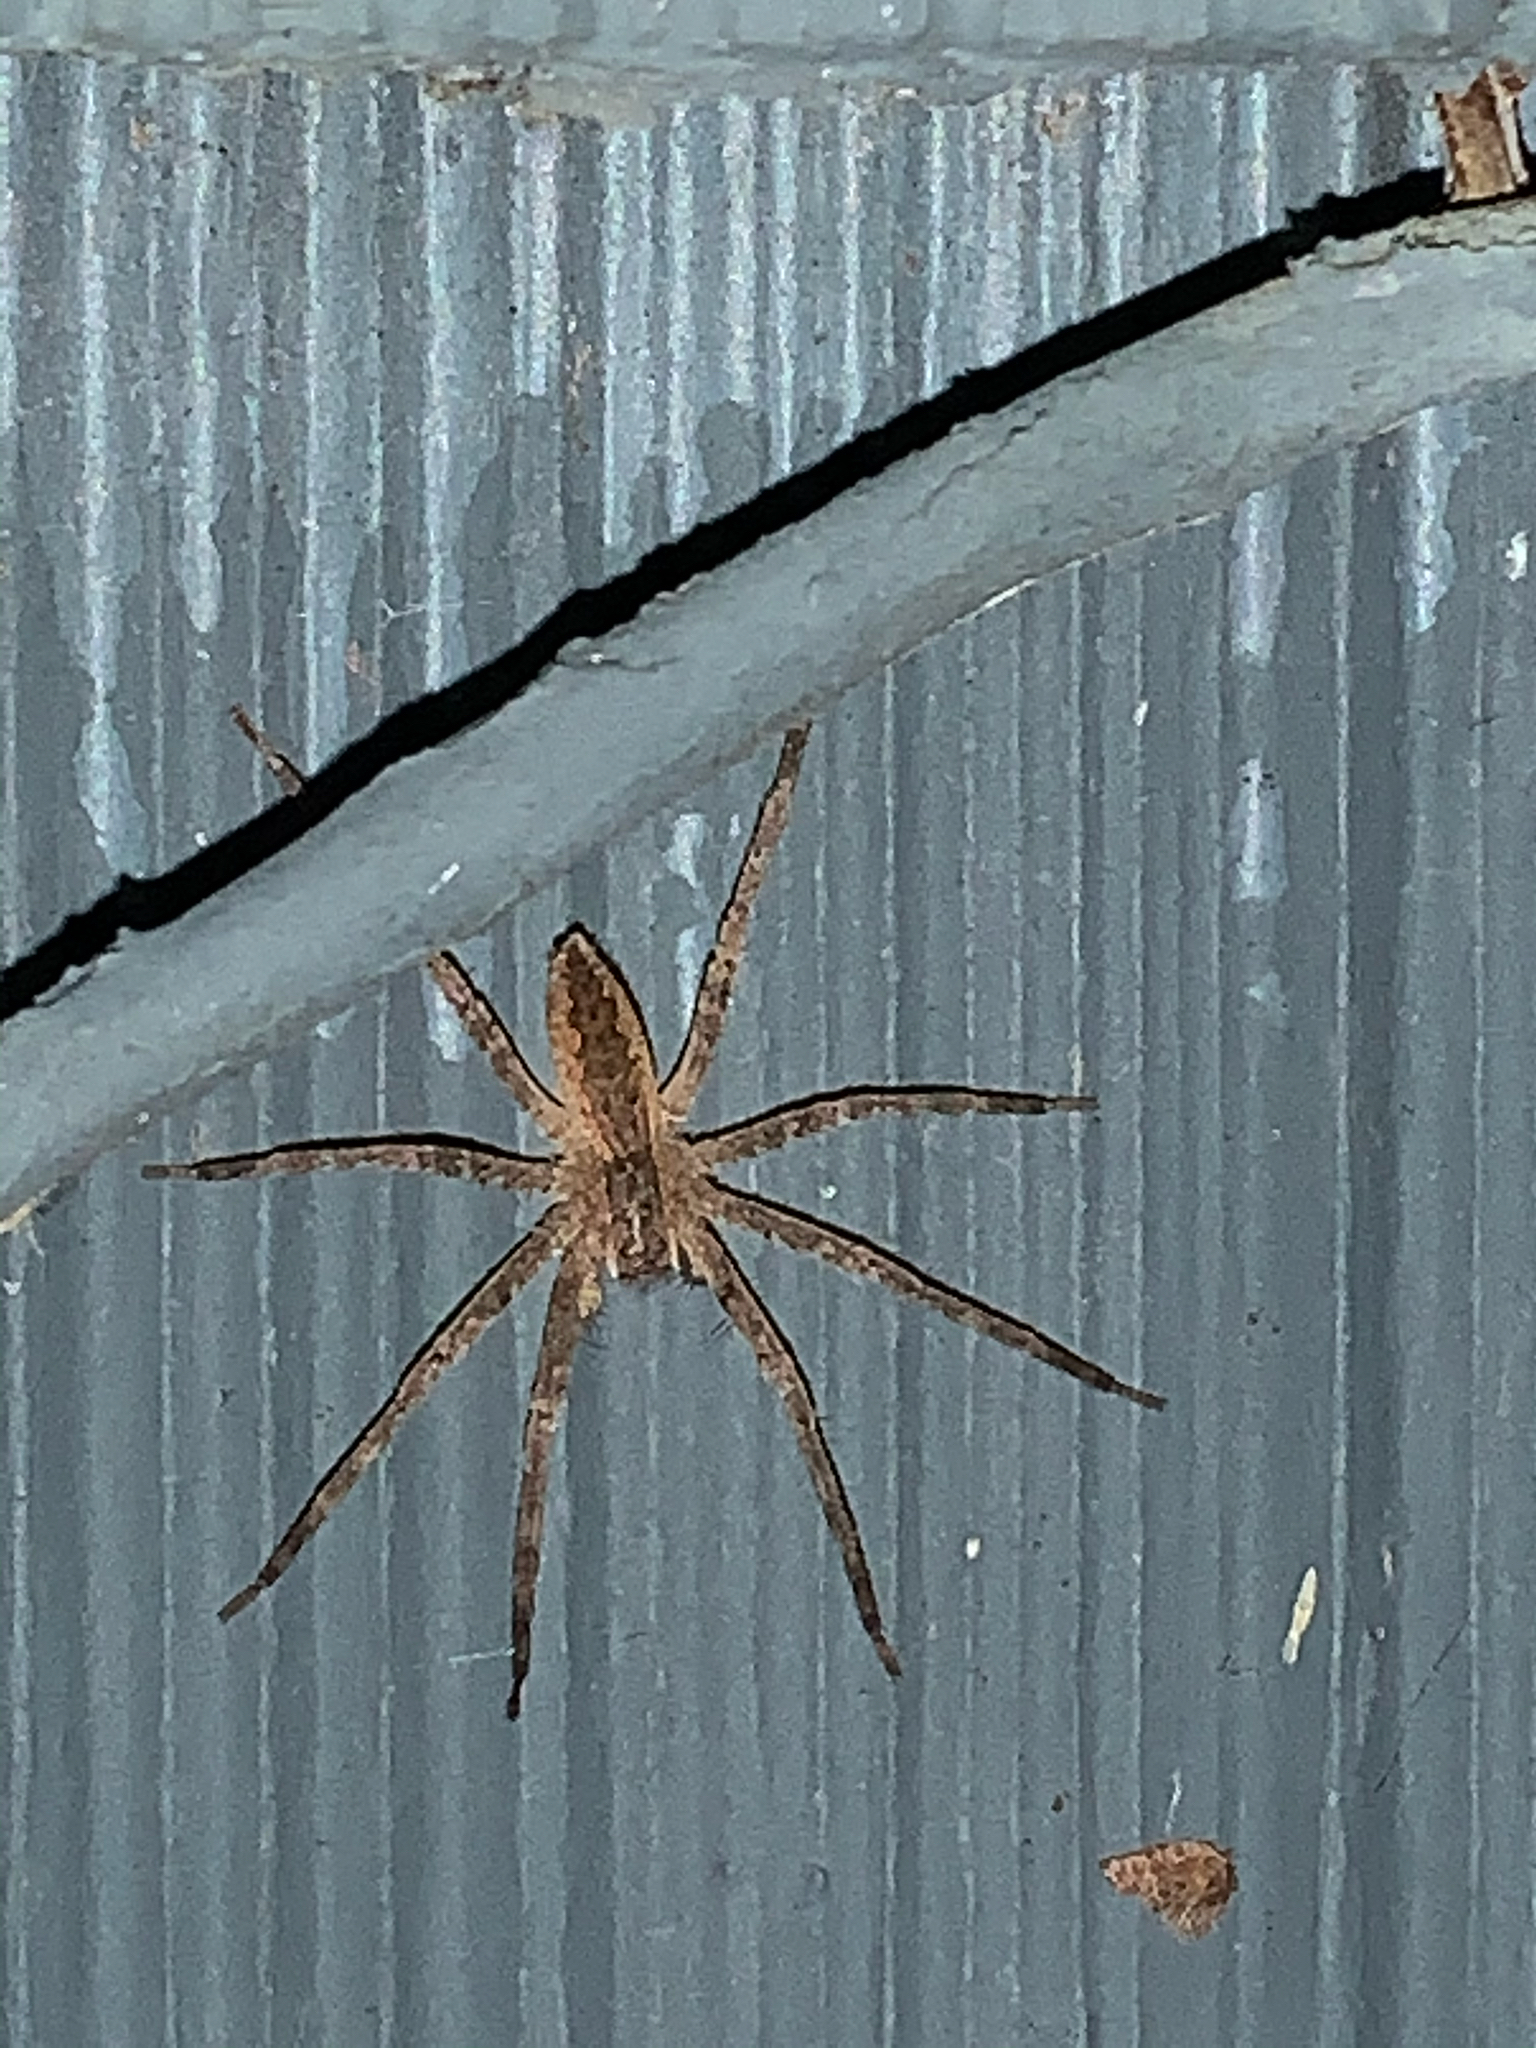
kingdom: Animalia
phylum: Arthropoda
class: Arachnida
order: Araneae
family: Pisauridae
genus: Pisaurina
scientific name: Pisaurina mira
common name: American nursery web spider
